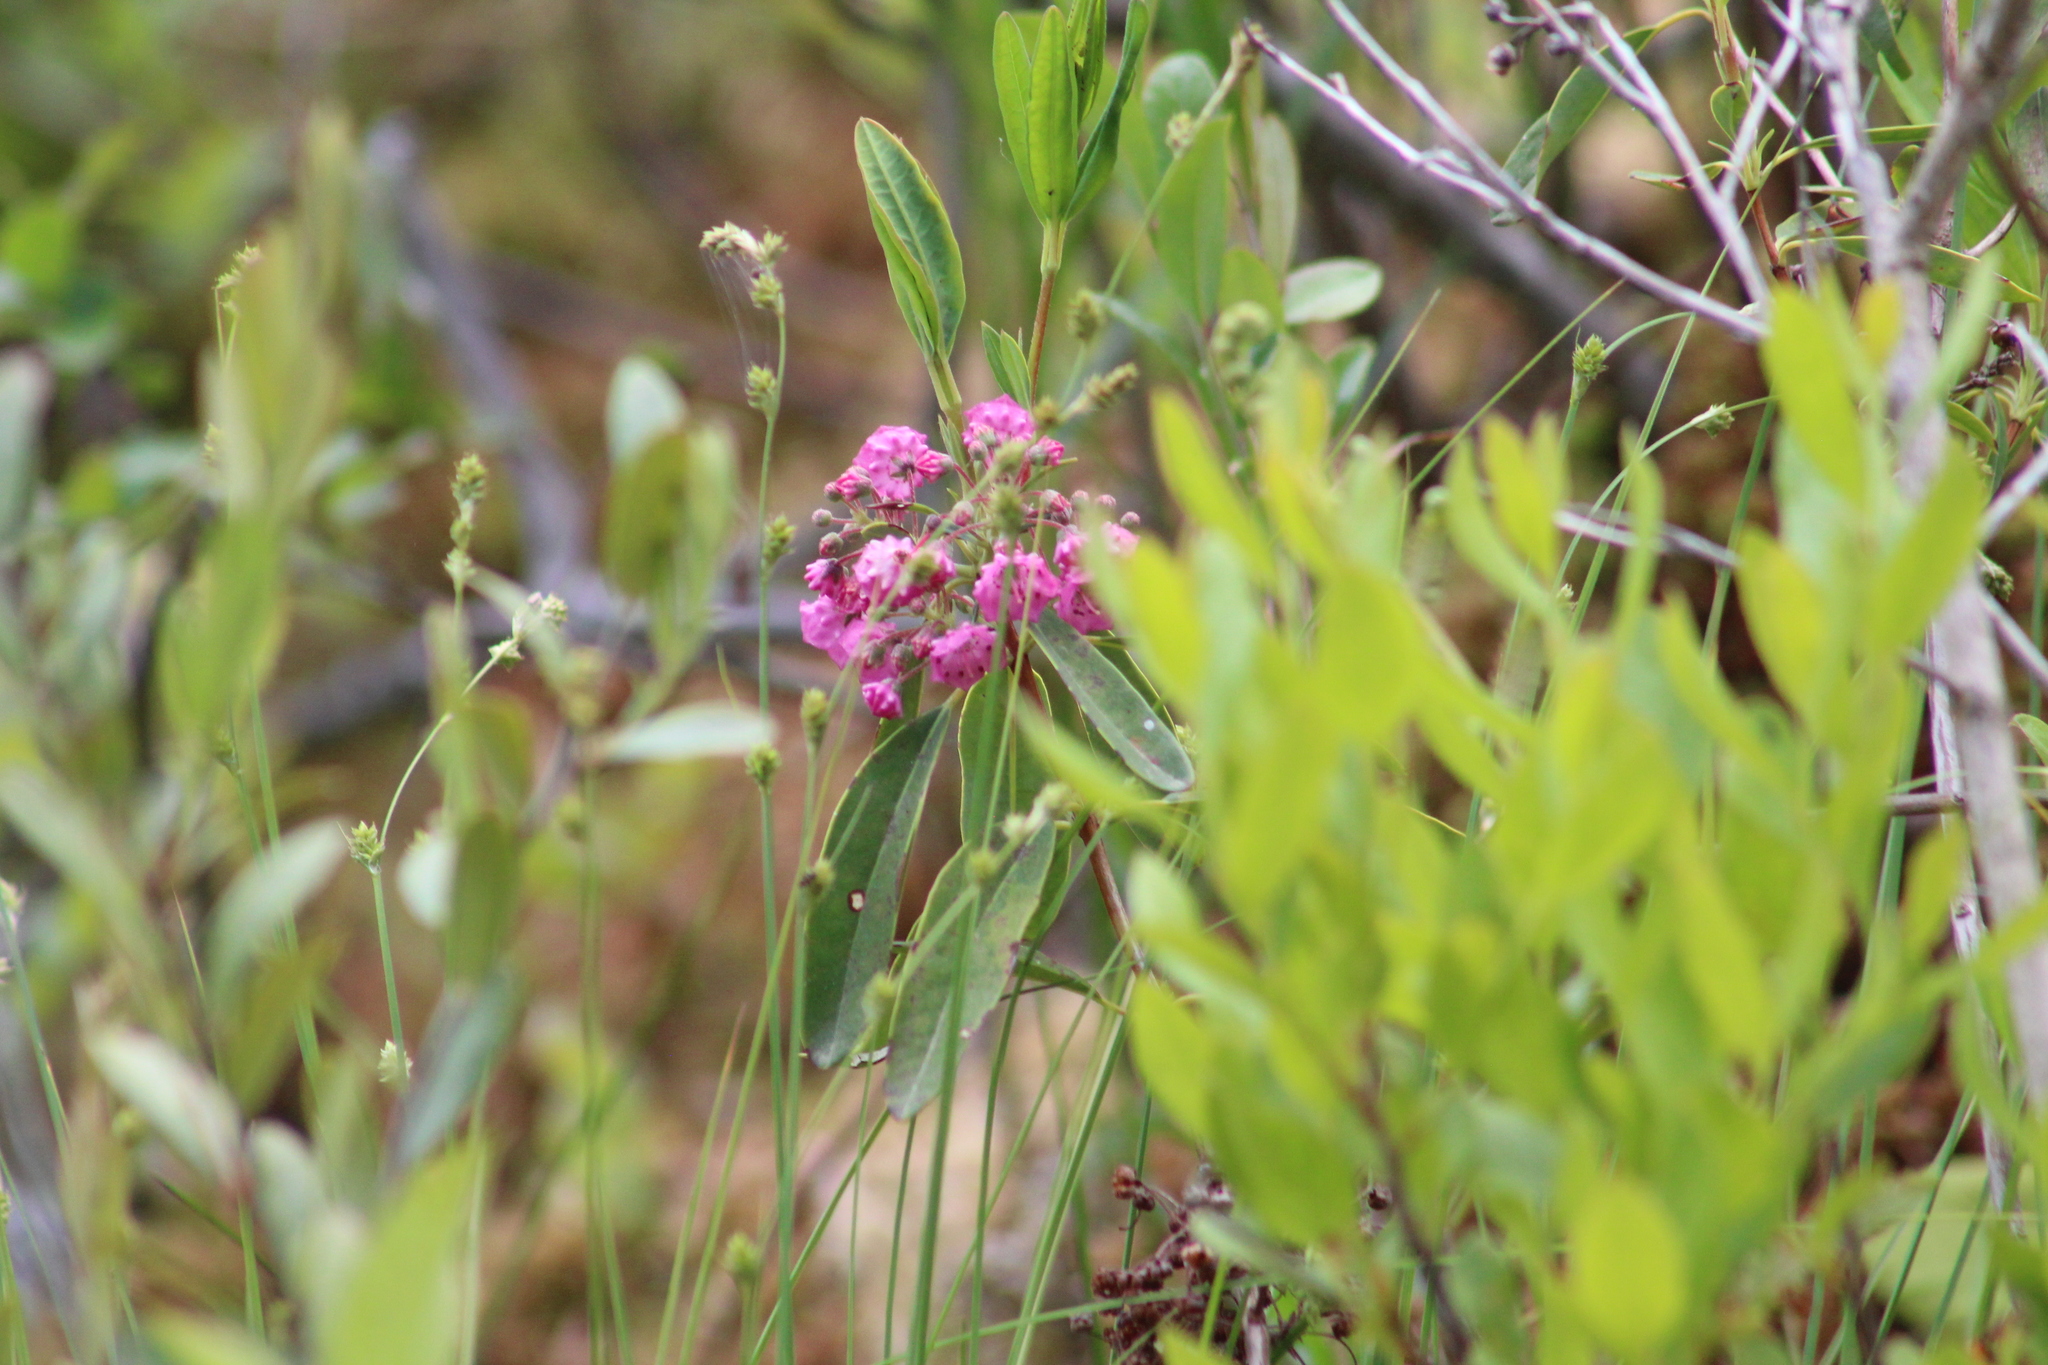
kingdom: Plantae
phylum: Tracheophyta
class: Magnoliopsida
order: Ericales
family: Ericaceae
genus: Kalmia
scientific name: Kalmia angustifolia
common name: Sheep-laurel
